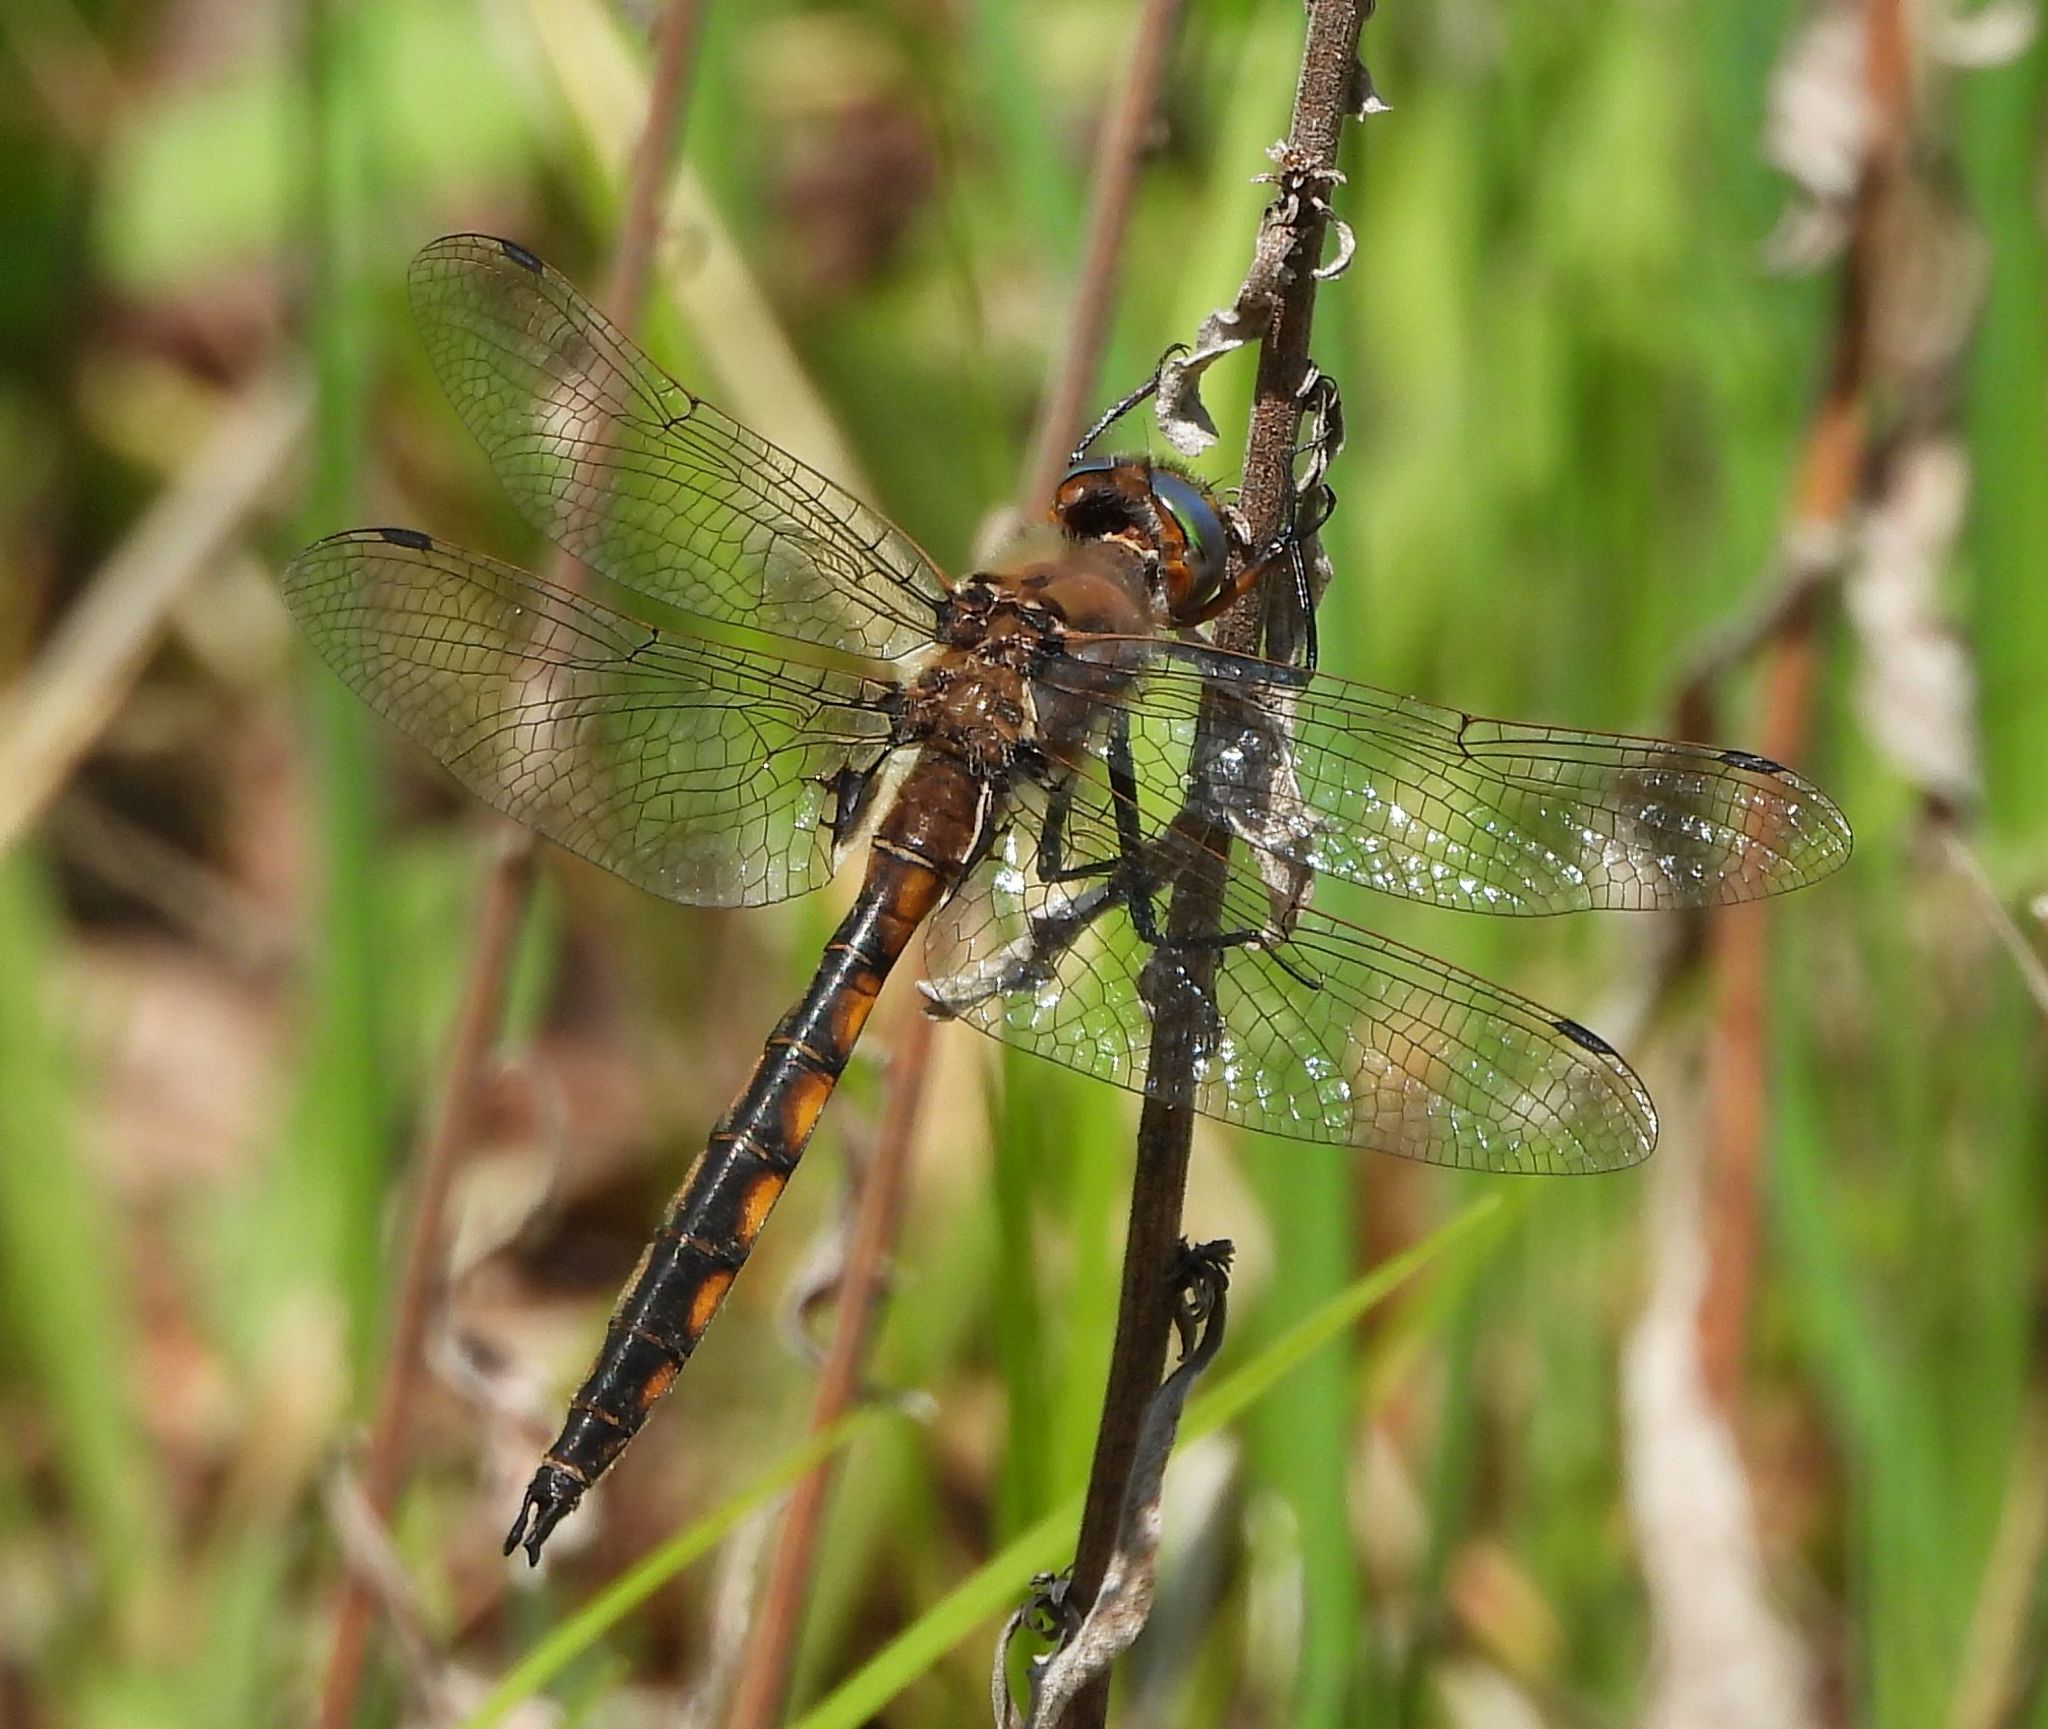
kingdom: Animalia
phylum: Arthropoda
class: Insecta
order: Odonata
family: Corduliidae
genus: Epitheca
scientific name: Epitheca canis
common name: Beaverpond baskettail
